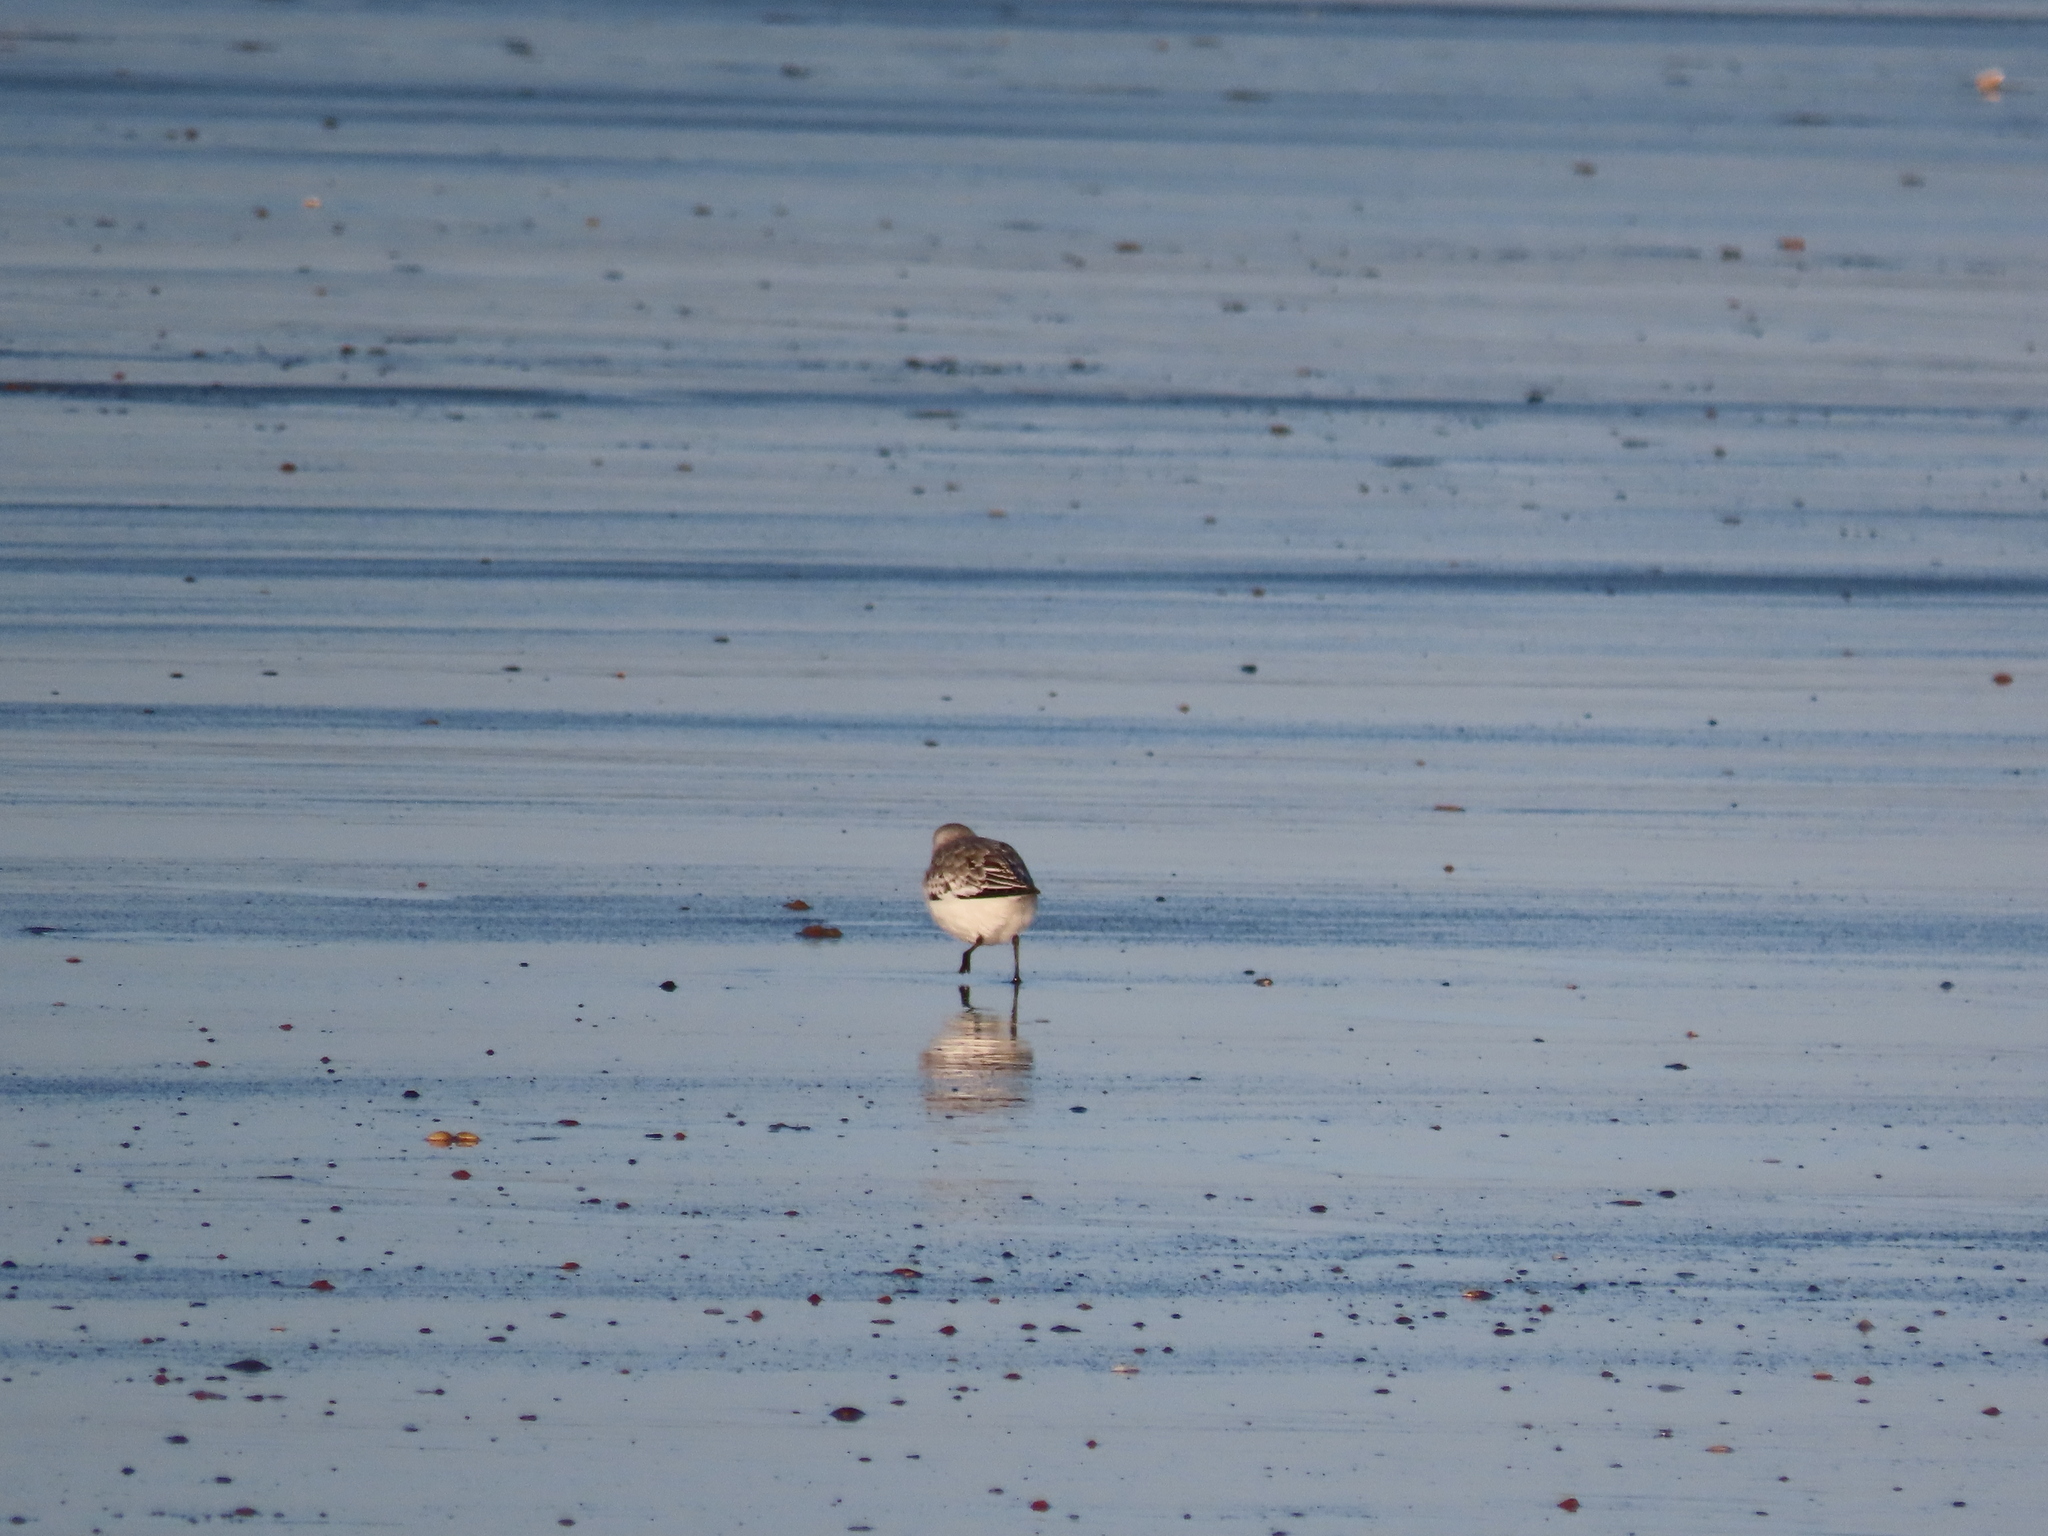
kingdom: Animalia
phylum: Chordata
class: Aves
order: Charadriiformes
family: Scolopacidae
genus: Calidris
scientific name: Calidris alba
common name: Sanderling
